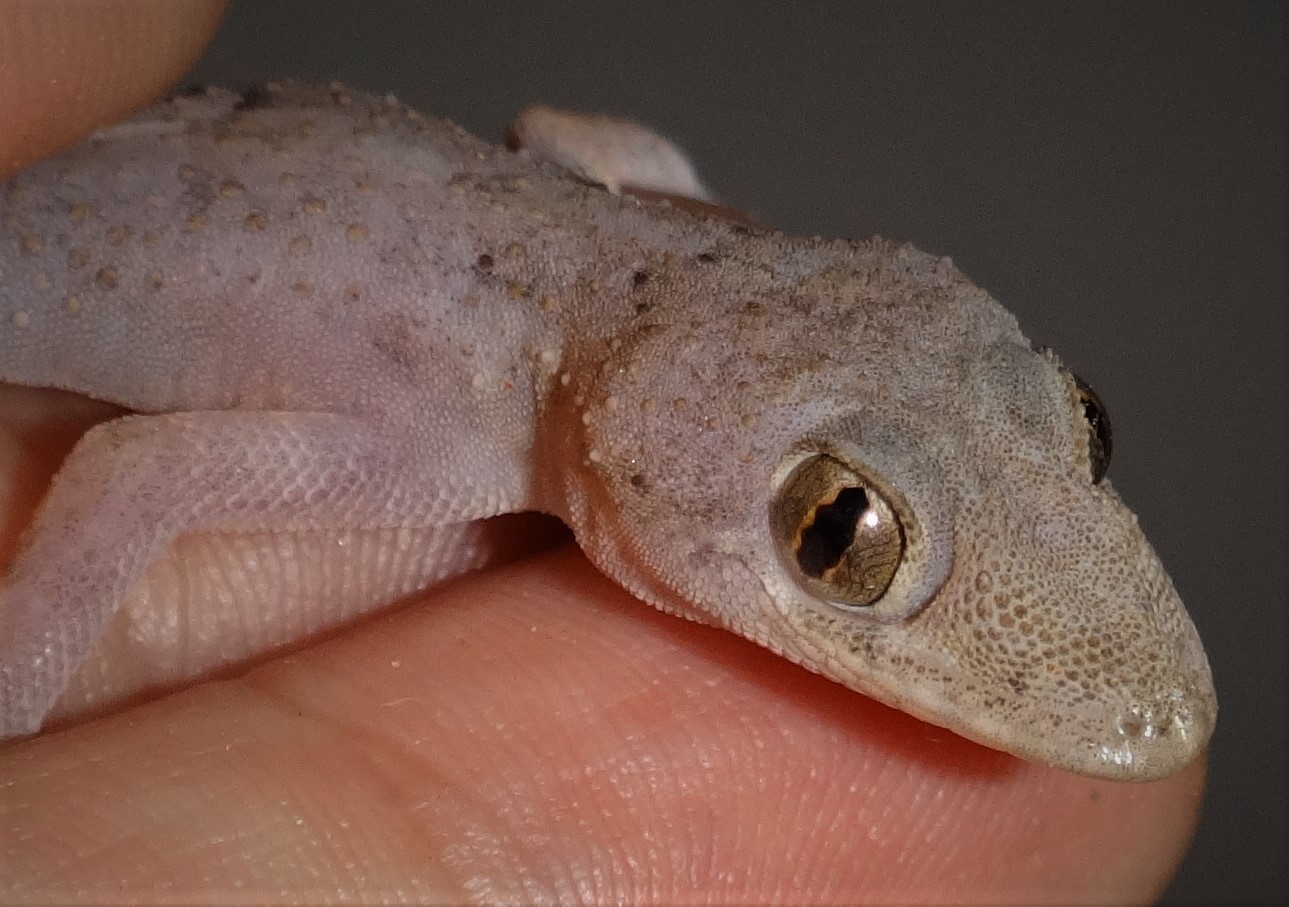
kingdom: Animalia
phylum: Chordata
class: Squamata
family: Gekkonidae
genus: Hemidactylus
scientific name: Hemidactylus mabouia
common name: House gecko
